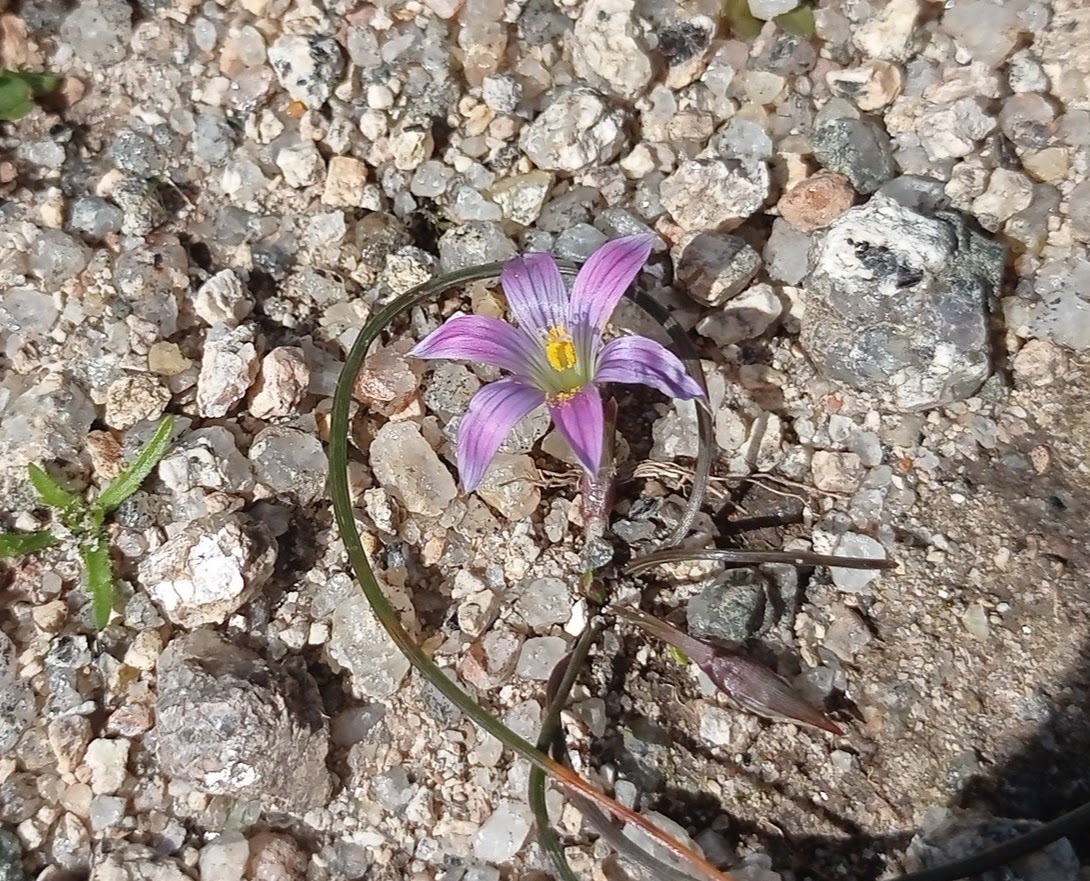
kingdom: Plantae
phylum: Tracheophyta
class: Liliopsida
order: Asparagales
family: Iridaceae
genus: Romulea
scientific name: Romulea ramiflora
